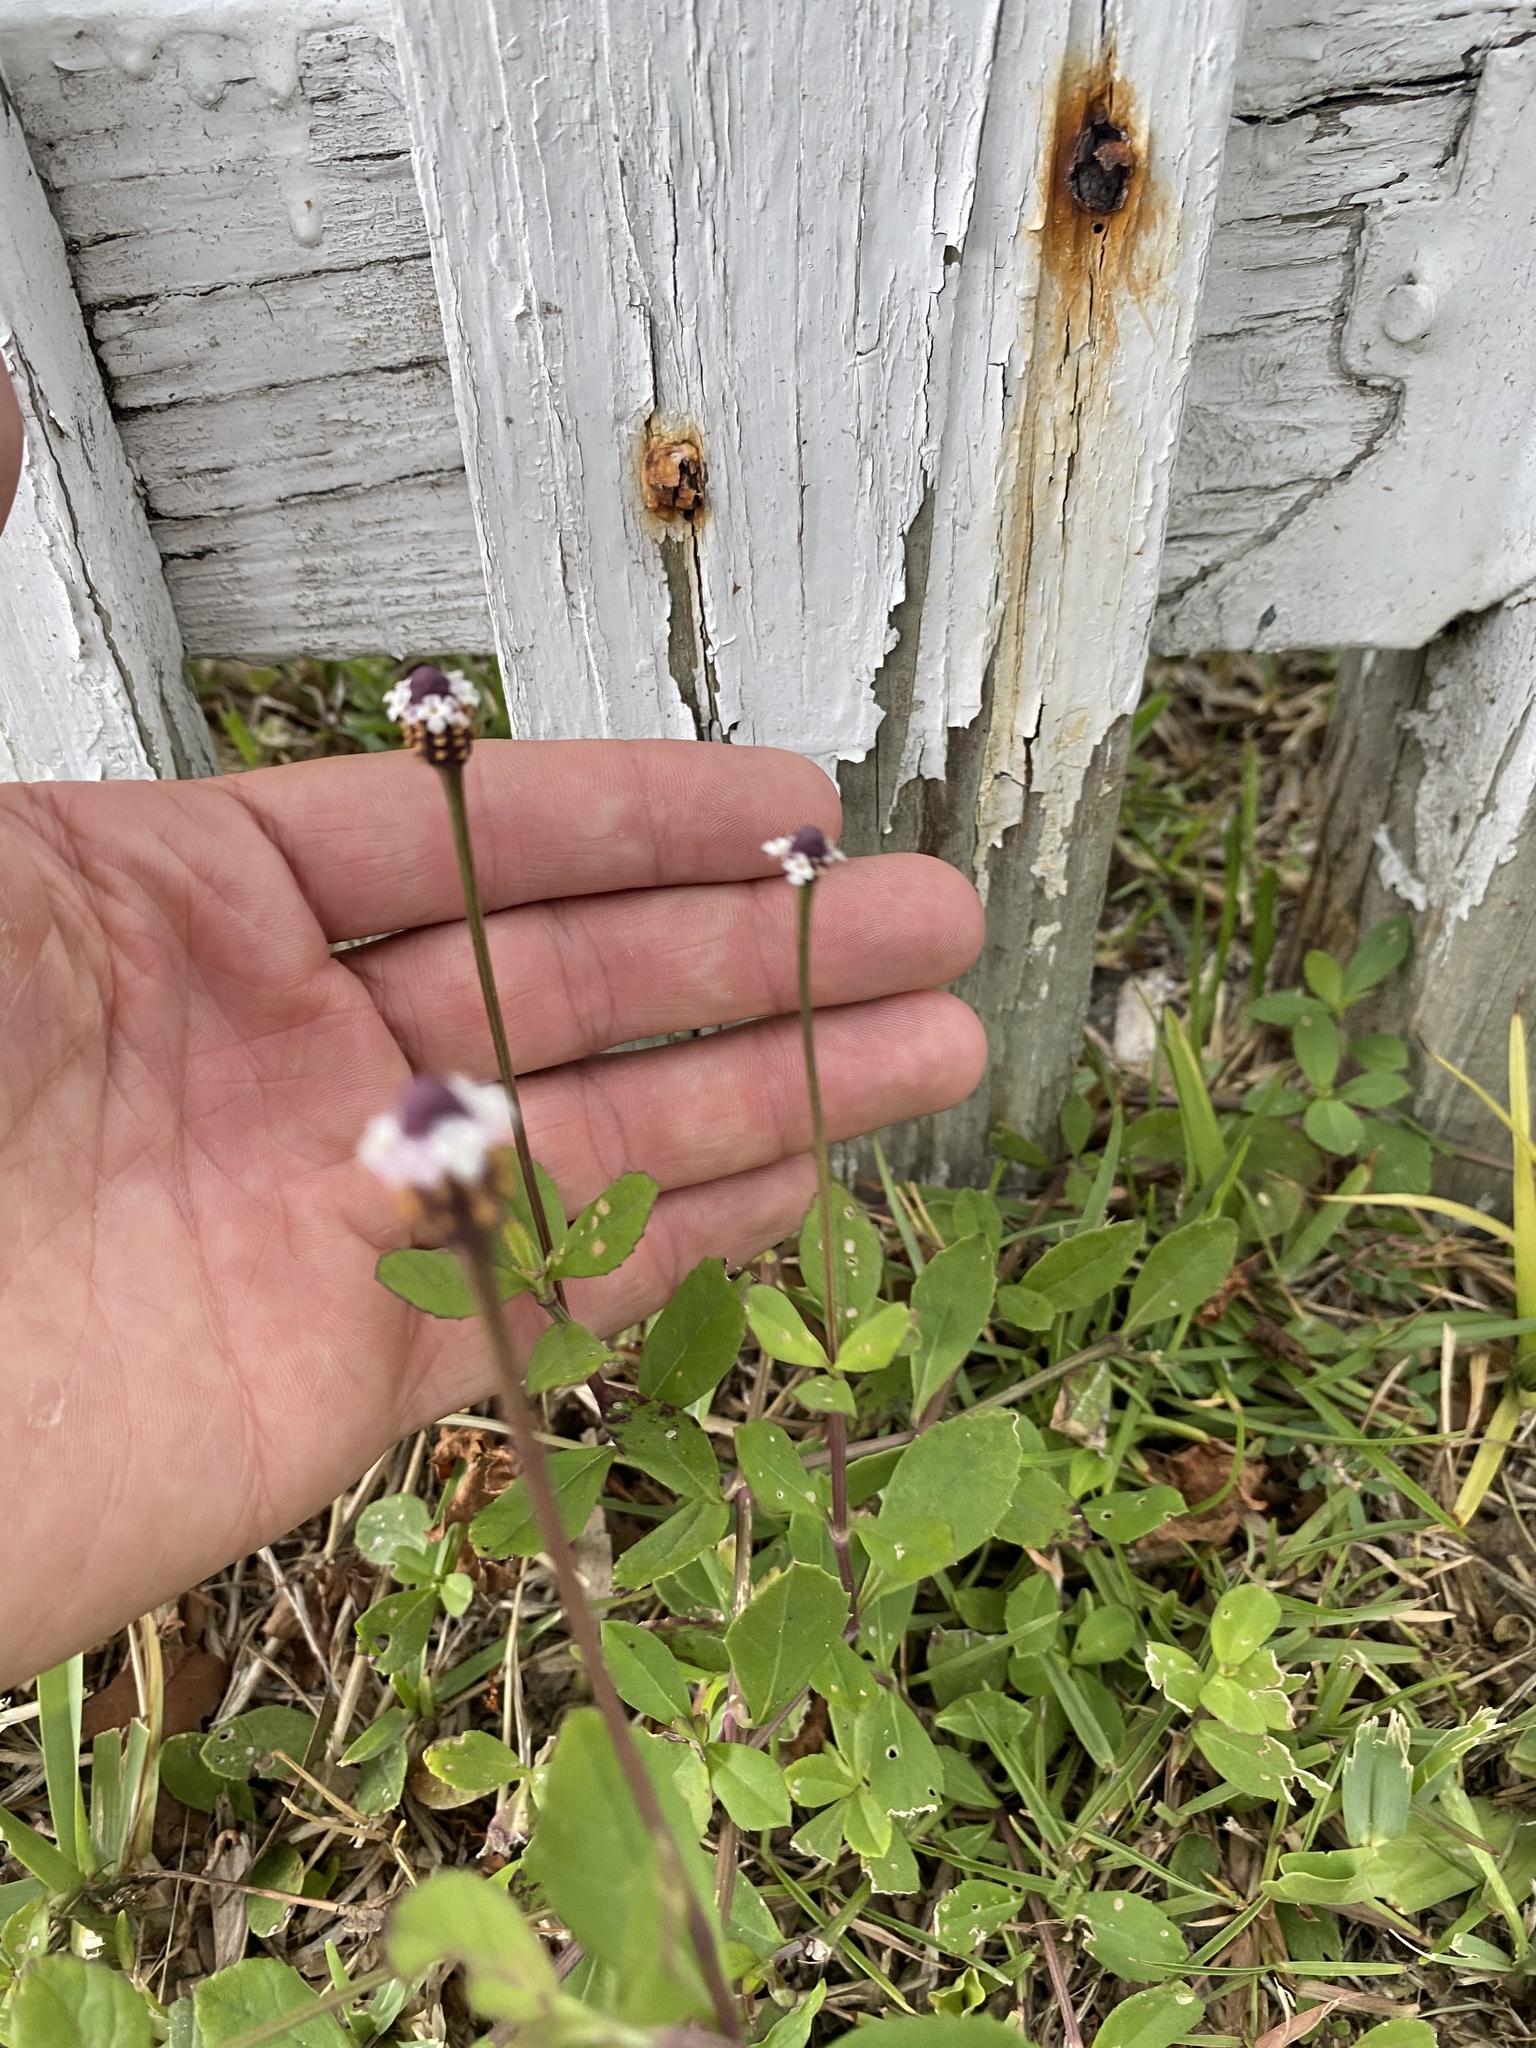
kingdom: Plantae
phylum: Tracheophyta
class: Magnoliopsida
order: Lamiales
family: Verbenaceae
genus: Phyla
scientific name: Phyla nodiflora
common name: Frogfruit
